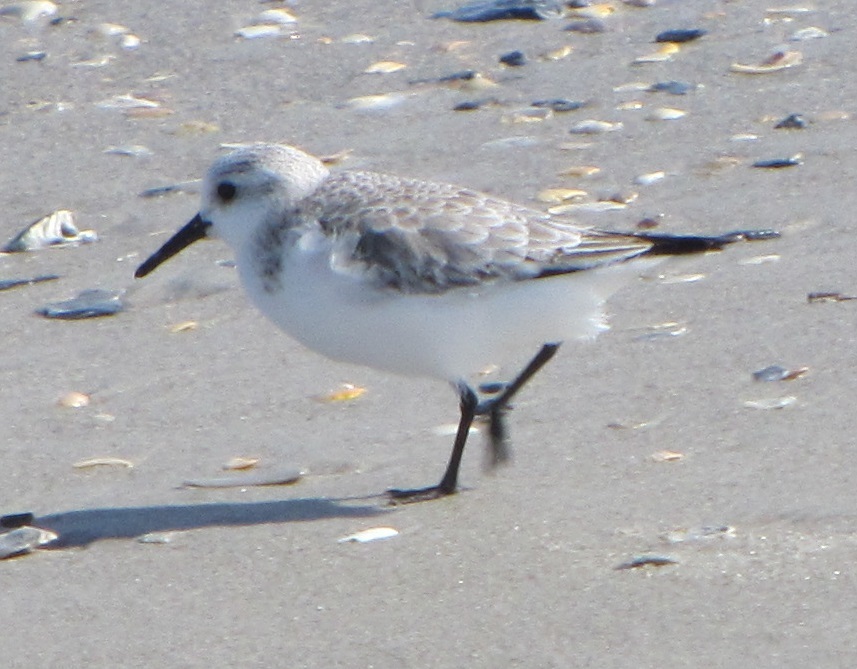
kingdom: Animalia
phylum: Chordata
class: Aves
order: Charadriiformes
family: Scolopacidae
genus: Calidris
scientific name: Calidris alba
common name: Sanderling
